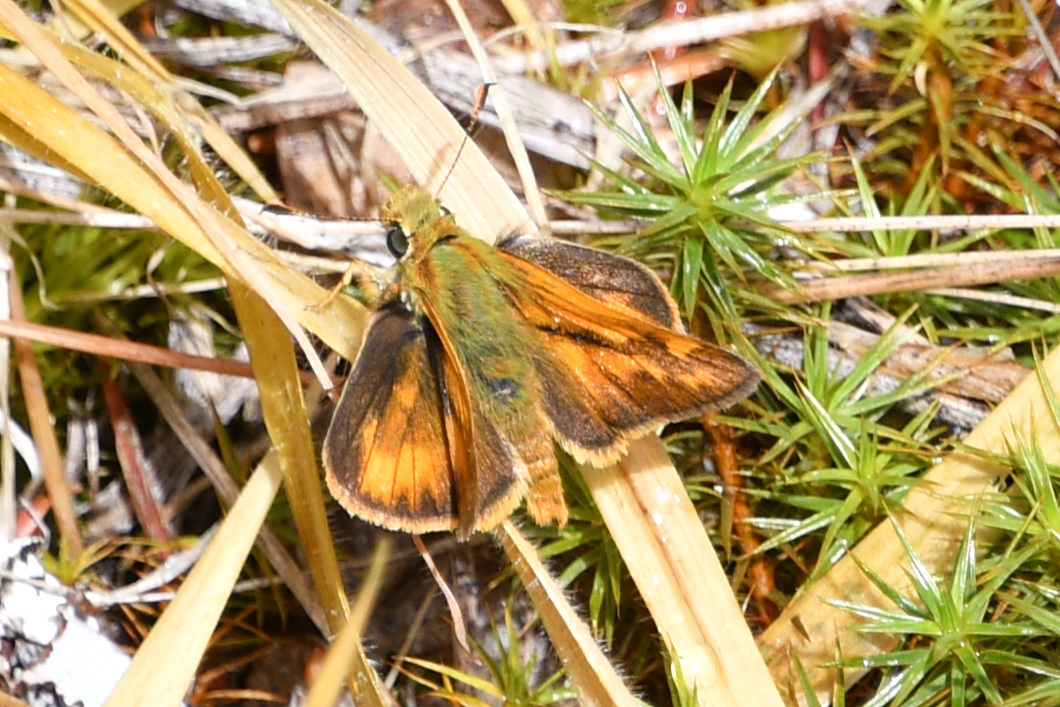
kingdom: Animalia
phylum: Arthropoda
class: Insecta
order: Lepidoptera
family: Hesperiidae
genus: Ochlodes
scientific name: Ochlodes sylvanoides
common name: Woodland skipper
